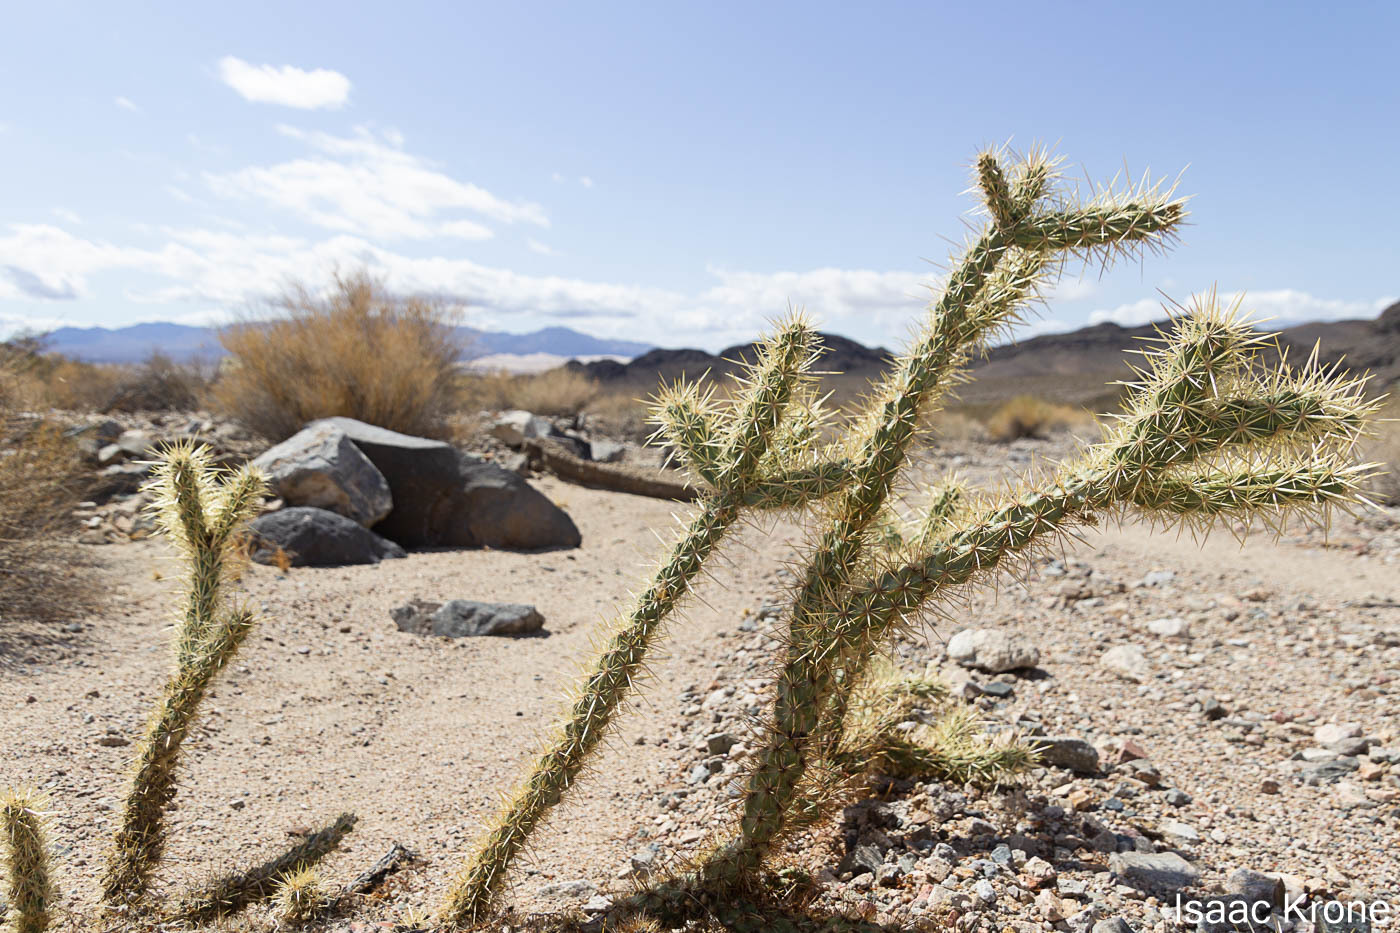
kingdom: Plantae
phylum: Tracheophyta
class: Magnoliopsida
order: Caryophyllales
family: Cactaceae
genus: Cylindropuntia
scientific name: Cylindropuntia acanthocarpa
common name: Buckhorn cholla
